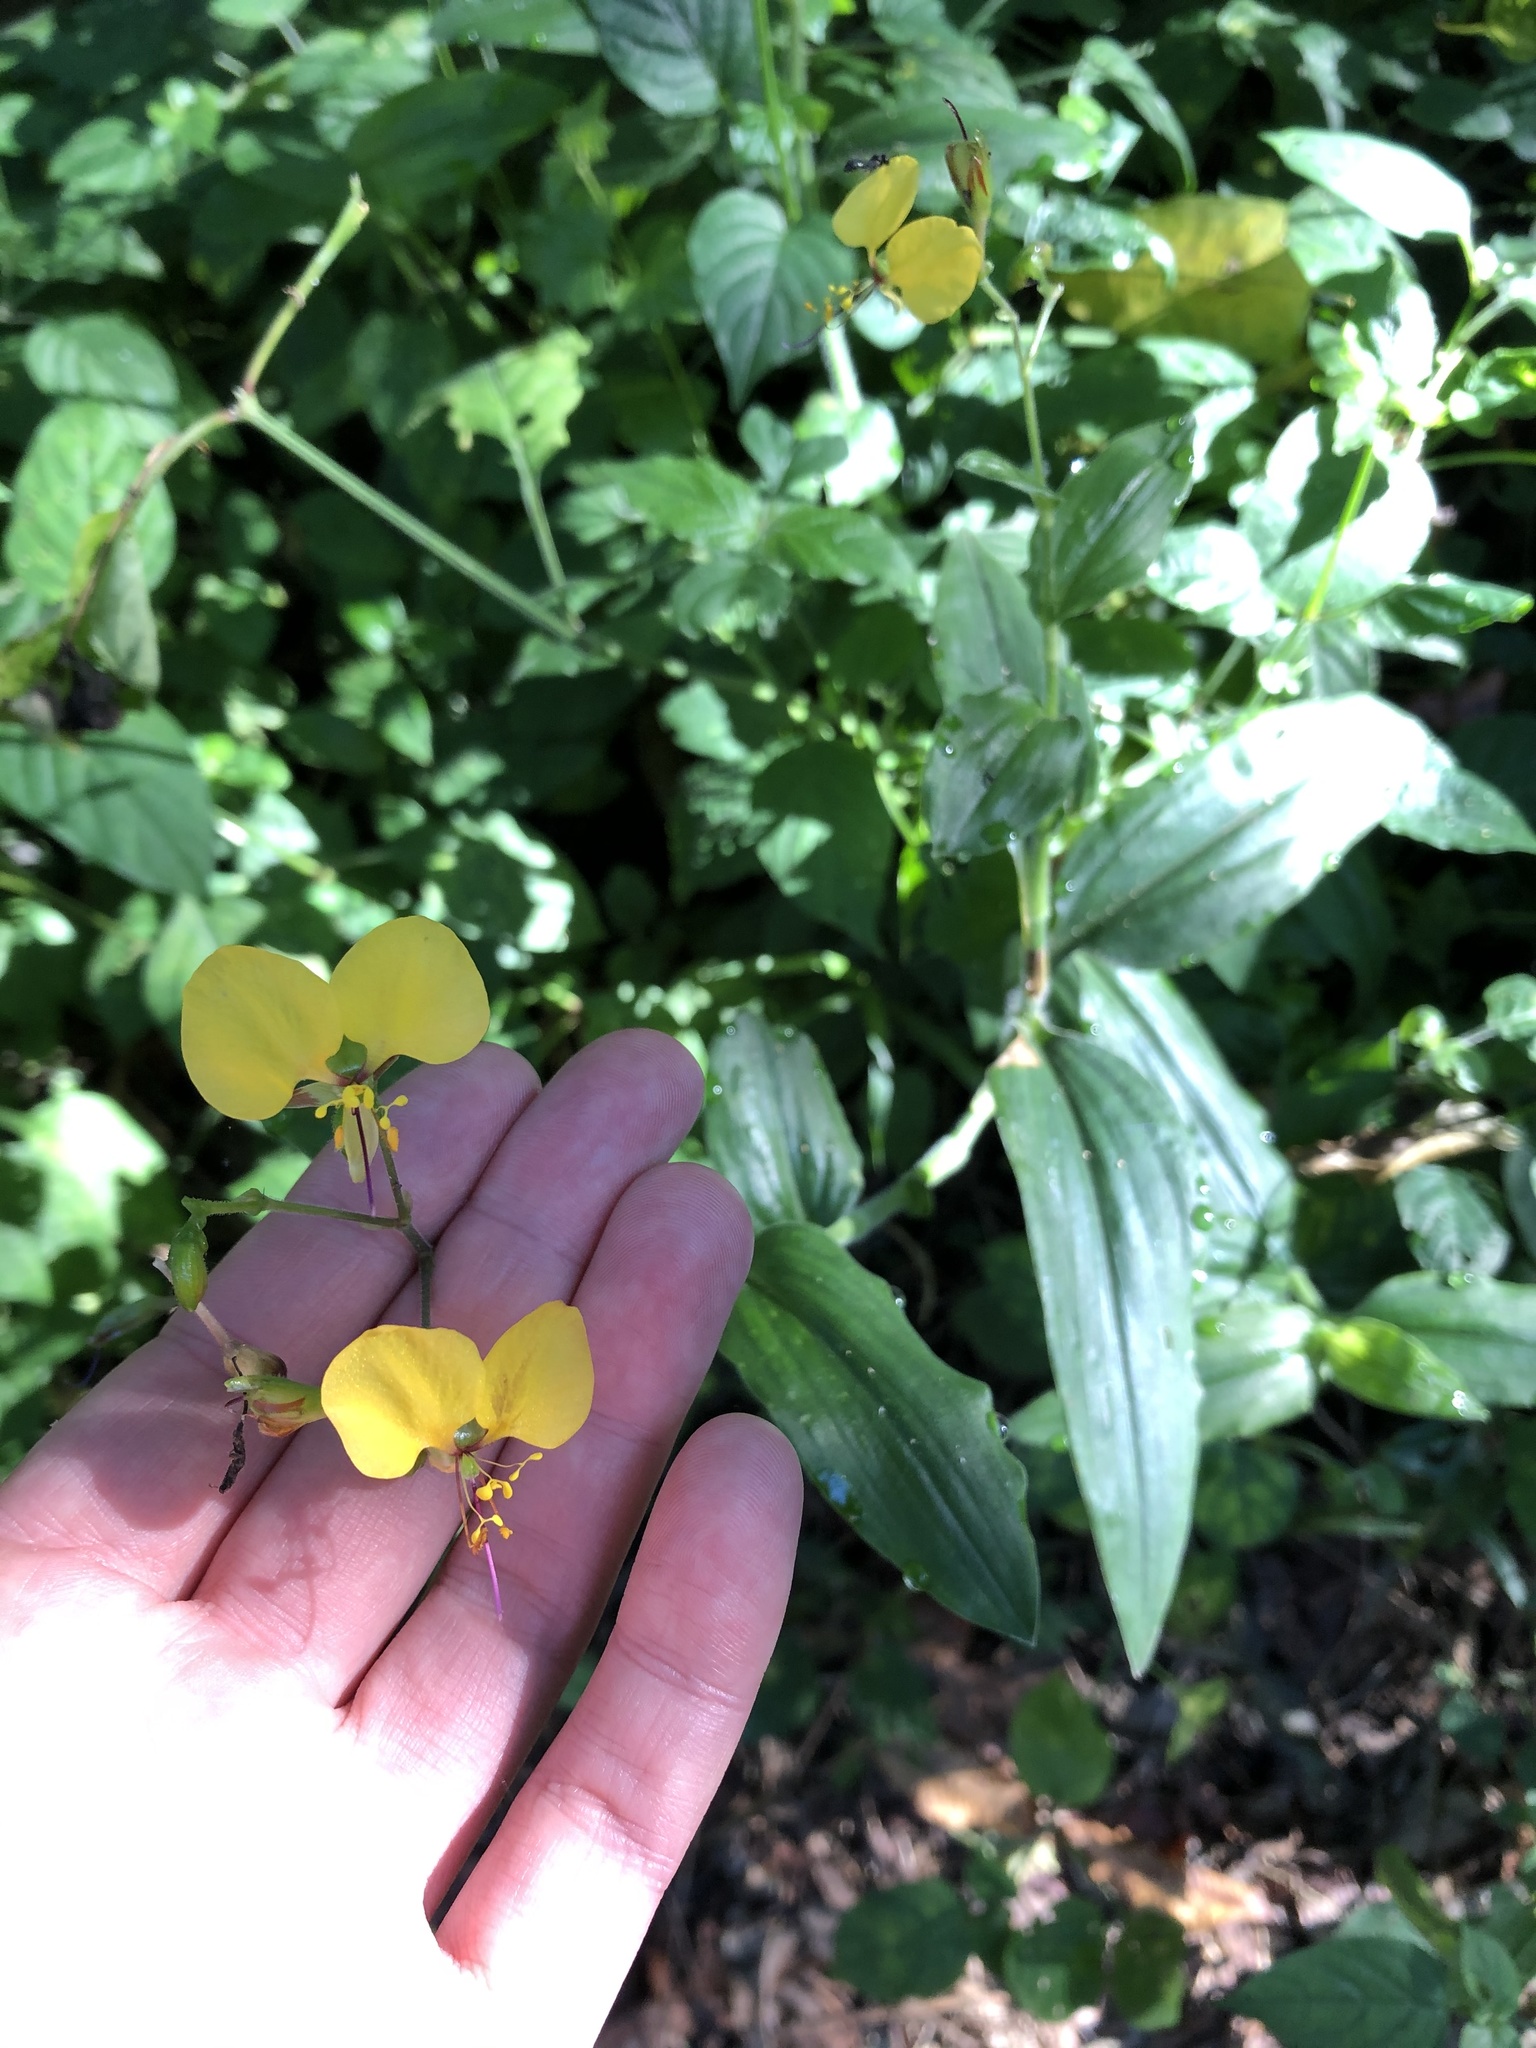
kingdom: Plantae
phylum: Tracheophyta
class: Liliopsida
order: Commelinales
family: Commelinaceae
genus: Aneilema
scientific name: Aneilema aequinoctiale
